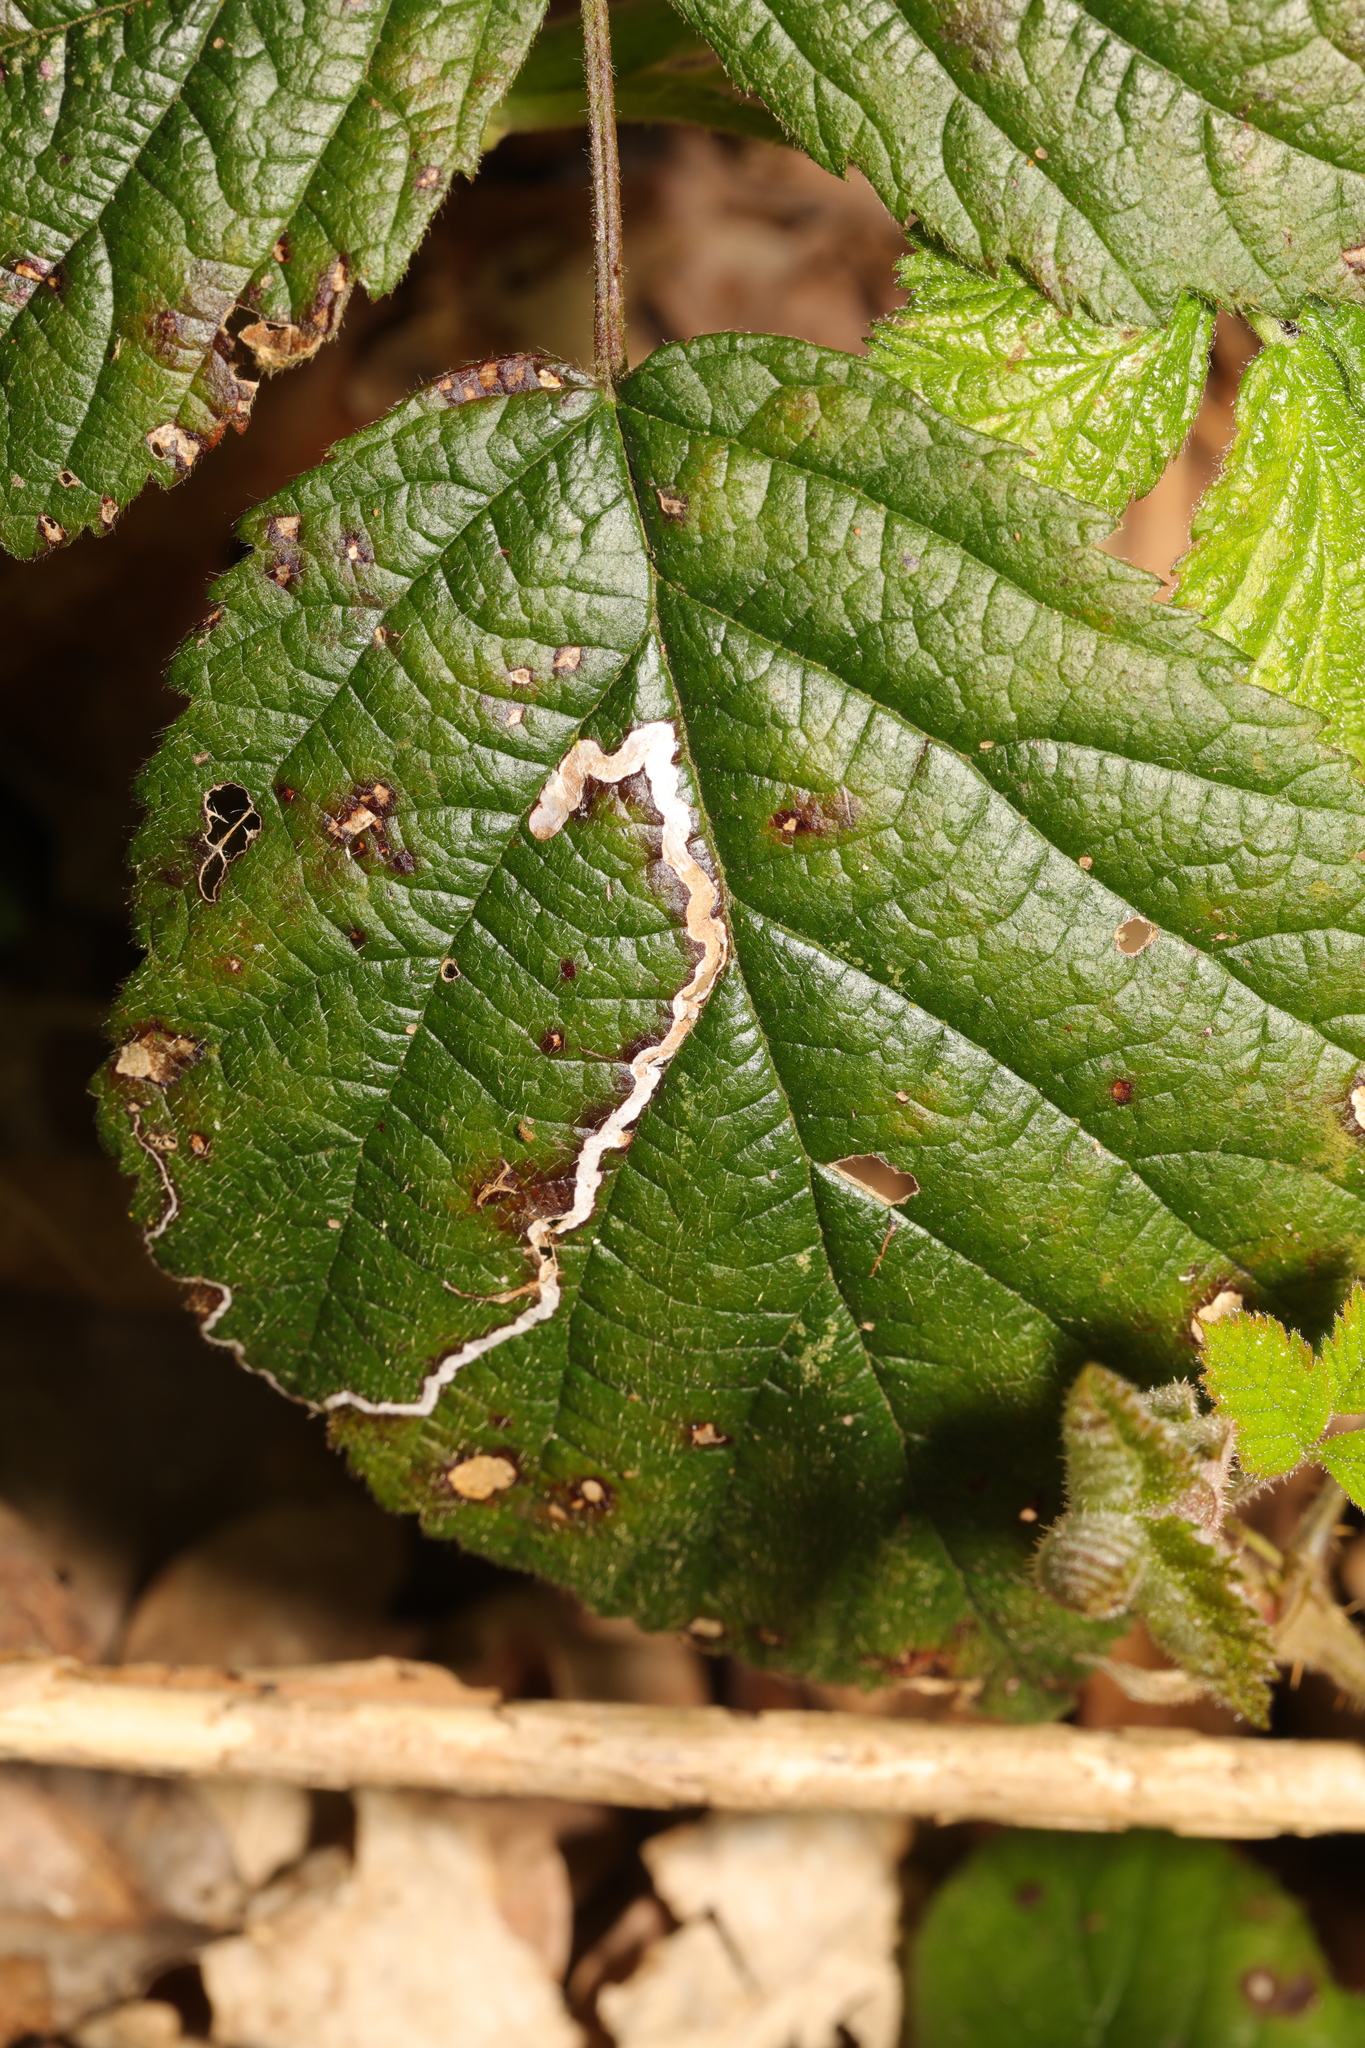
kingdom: Animalia
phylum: Arthropoda
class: Insecta
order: Lepidoptera
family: Nepticulidae
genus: Stigmella
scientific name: Stigmella aurella
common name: Golden pigmy
